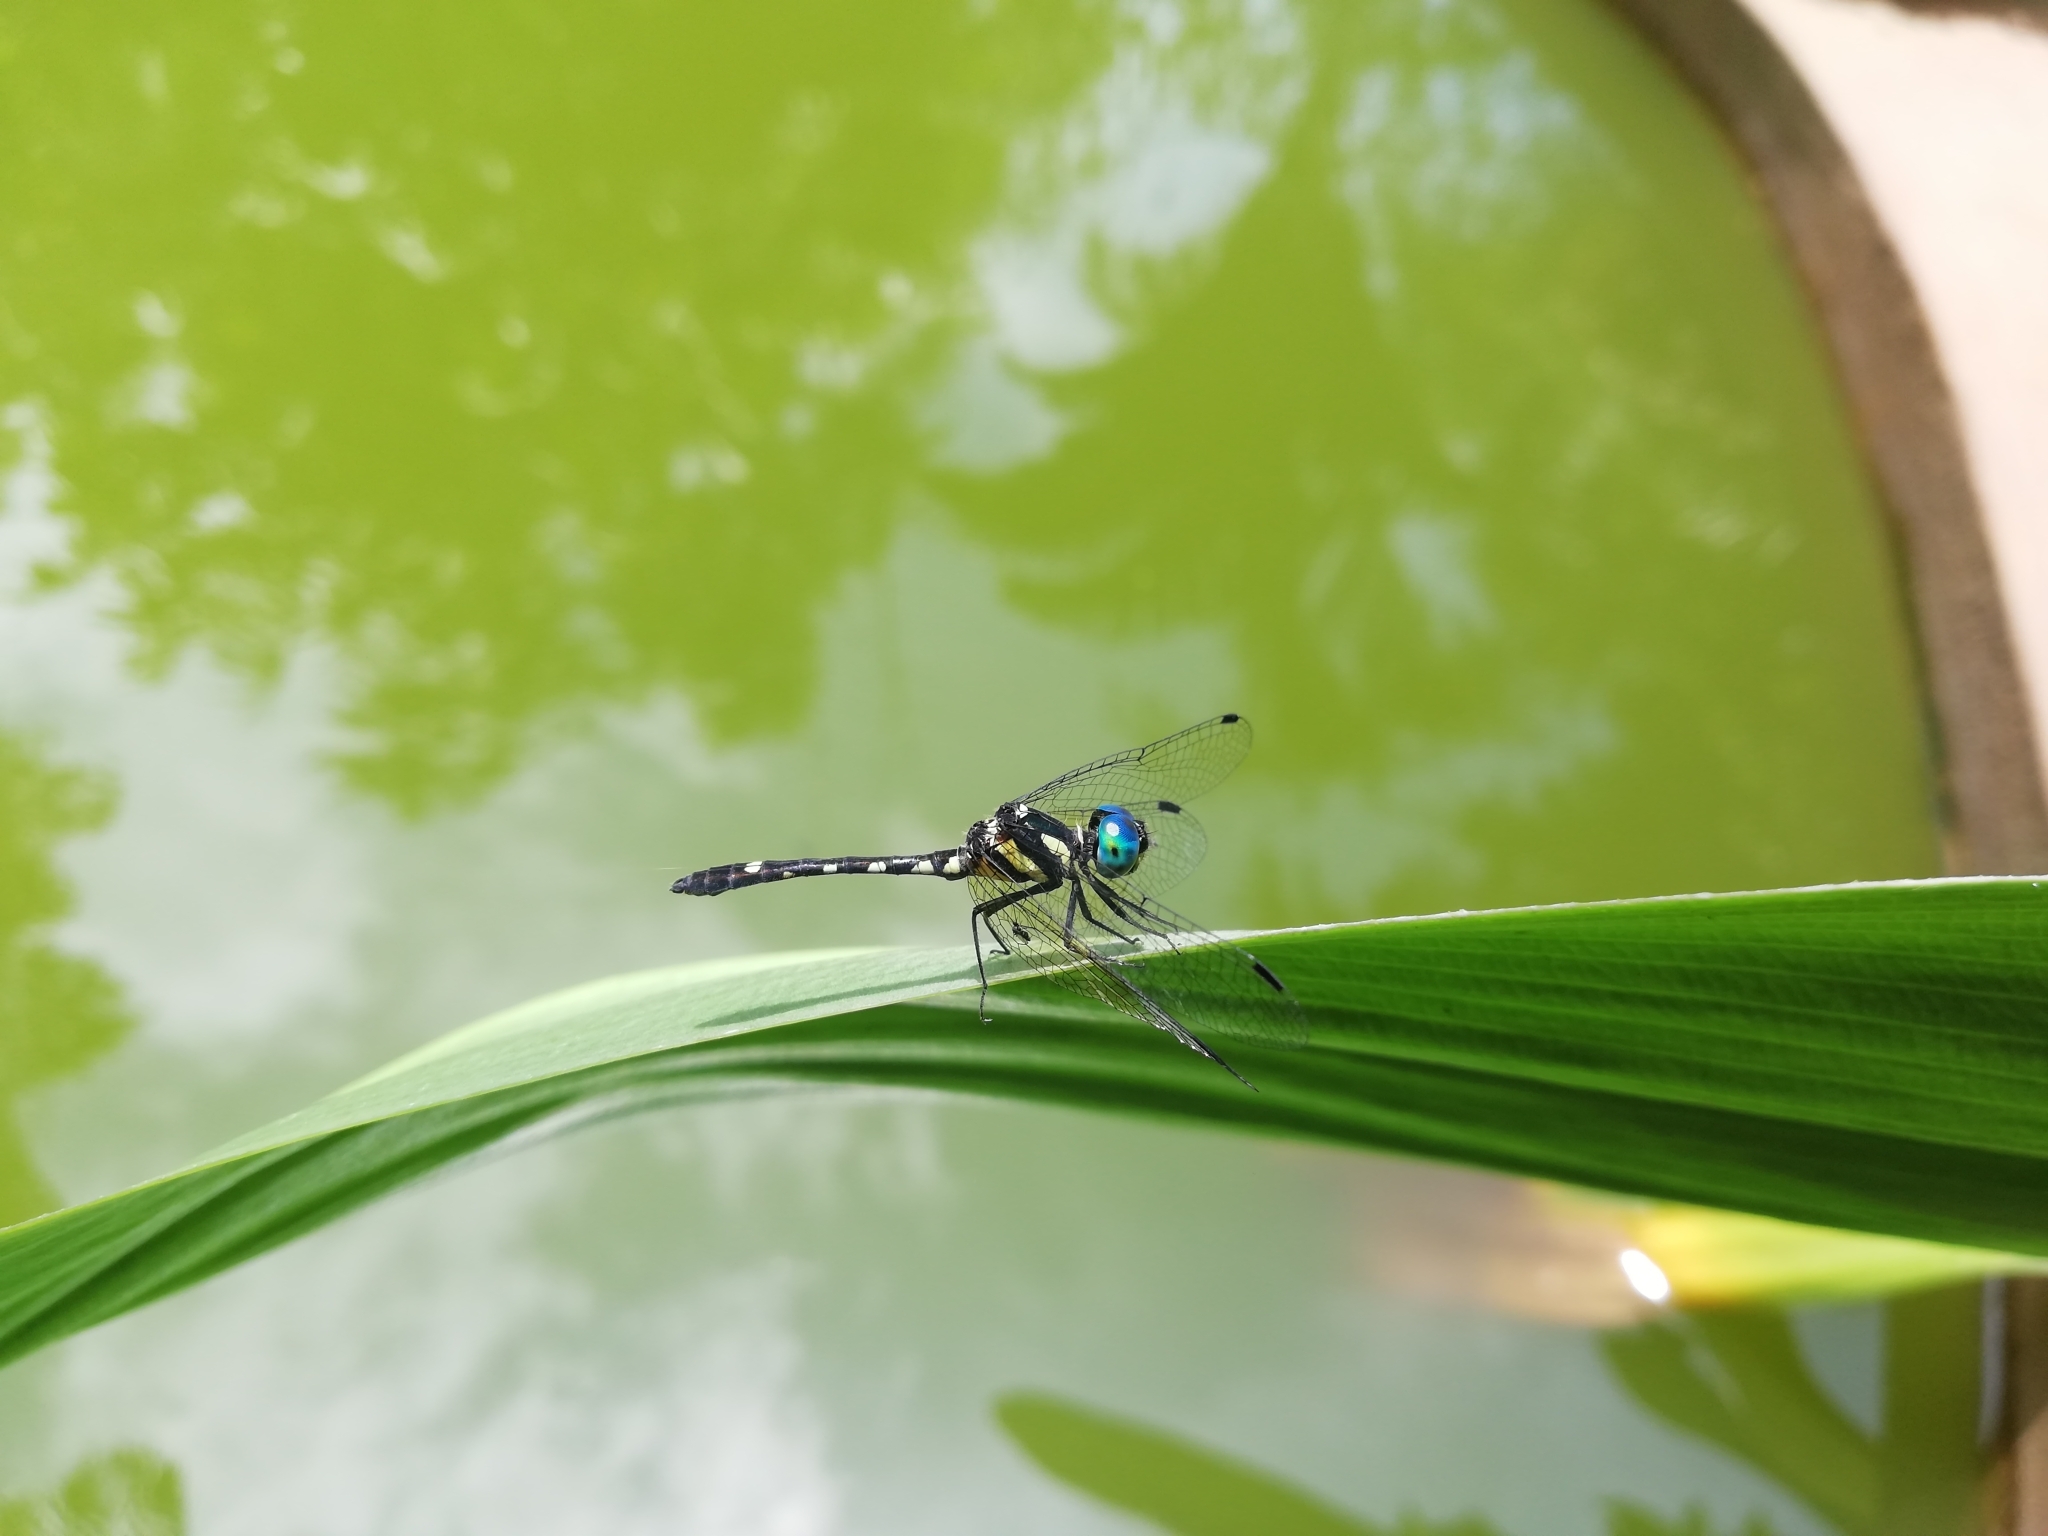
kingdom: Animalia
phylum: Arthropoda
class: Insecta
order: Odonata
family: Libellulidae
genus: Tetrathemis
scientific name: Tetrathemis platyptera
